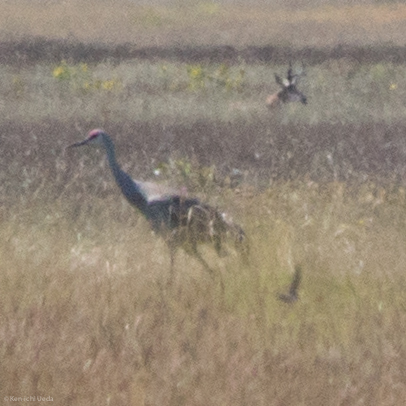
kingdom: Animalia
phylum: Chordata
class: Mammalia
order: Artiodactyla
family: Antilocapridae
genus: Antilocapra
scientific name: Antilocapra americana
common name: Pronghorn
